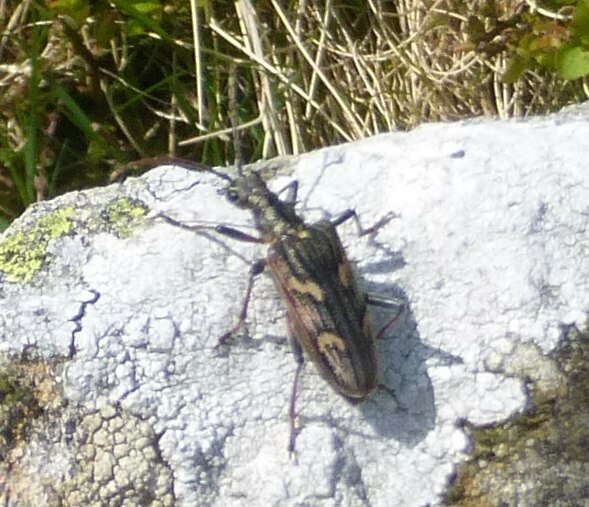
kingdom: Animalia
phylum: Arthropoda
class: Insecta
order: Coleoptera
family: Cerambycidae
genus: Rhagium
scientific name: Rhagium bifasciatum
